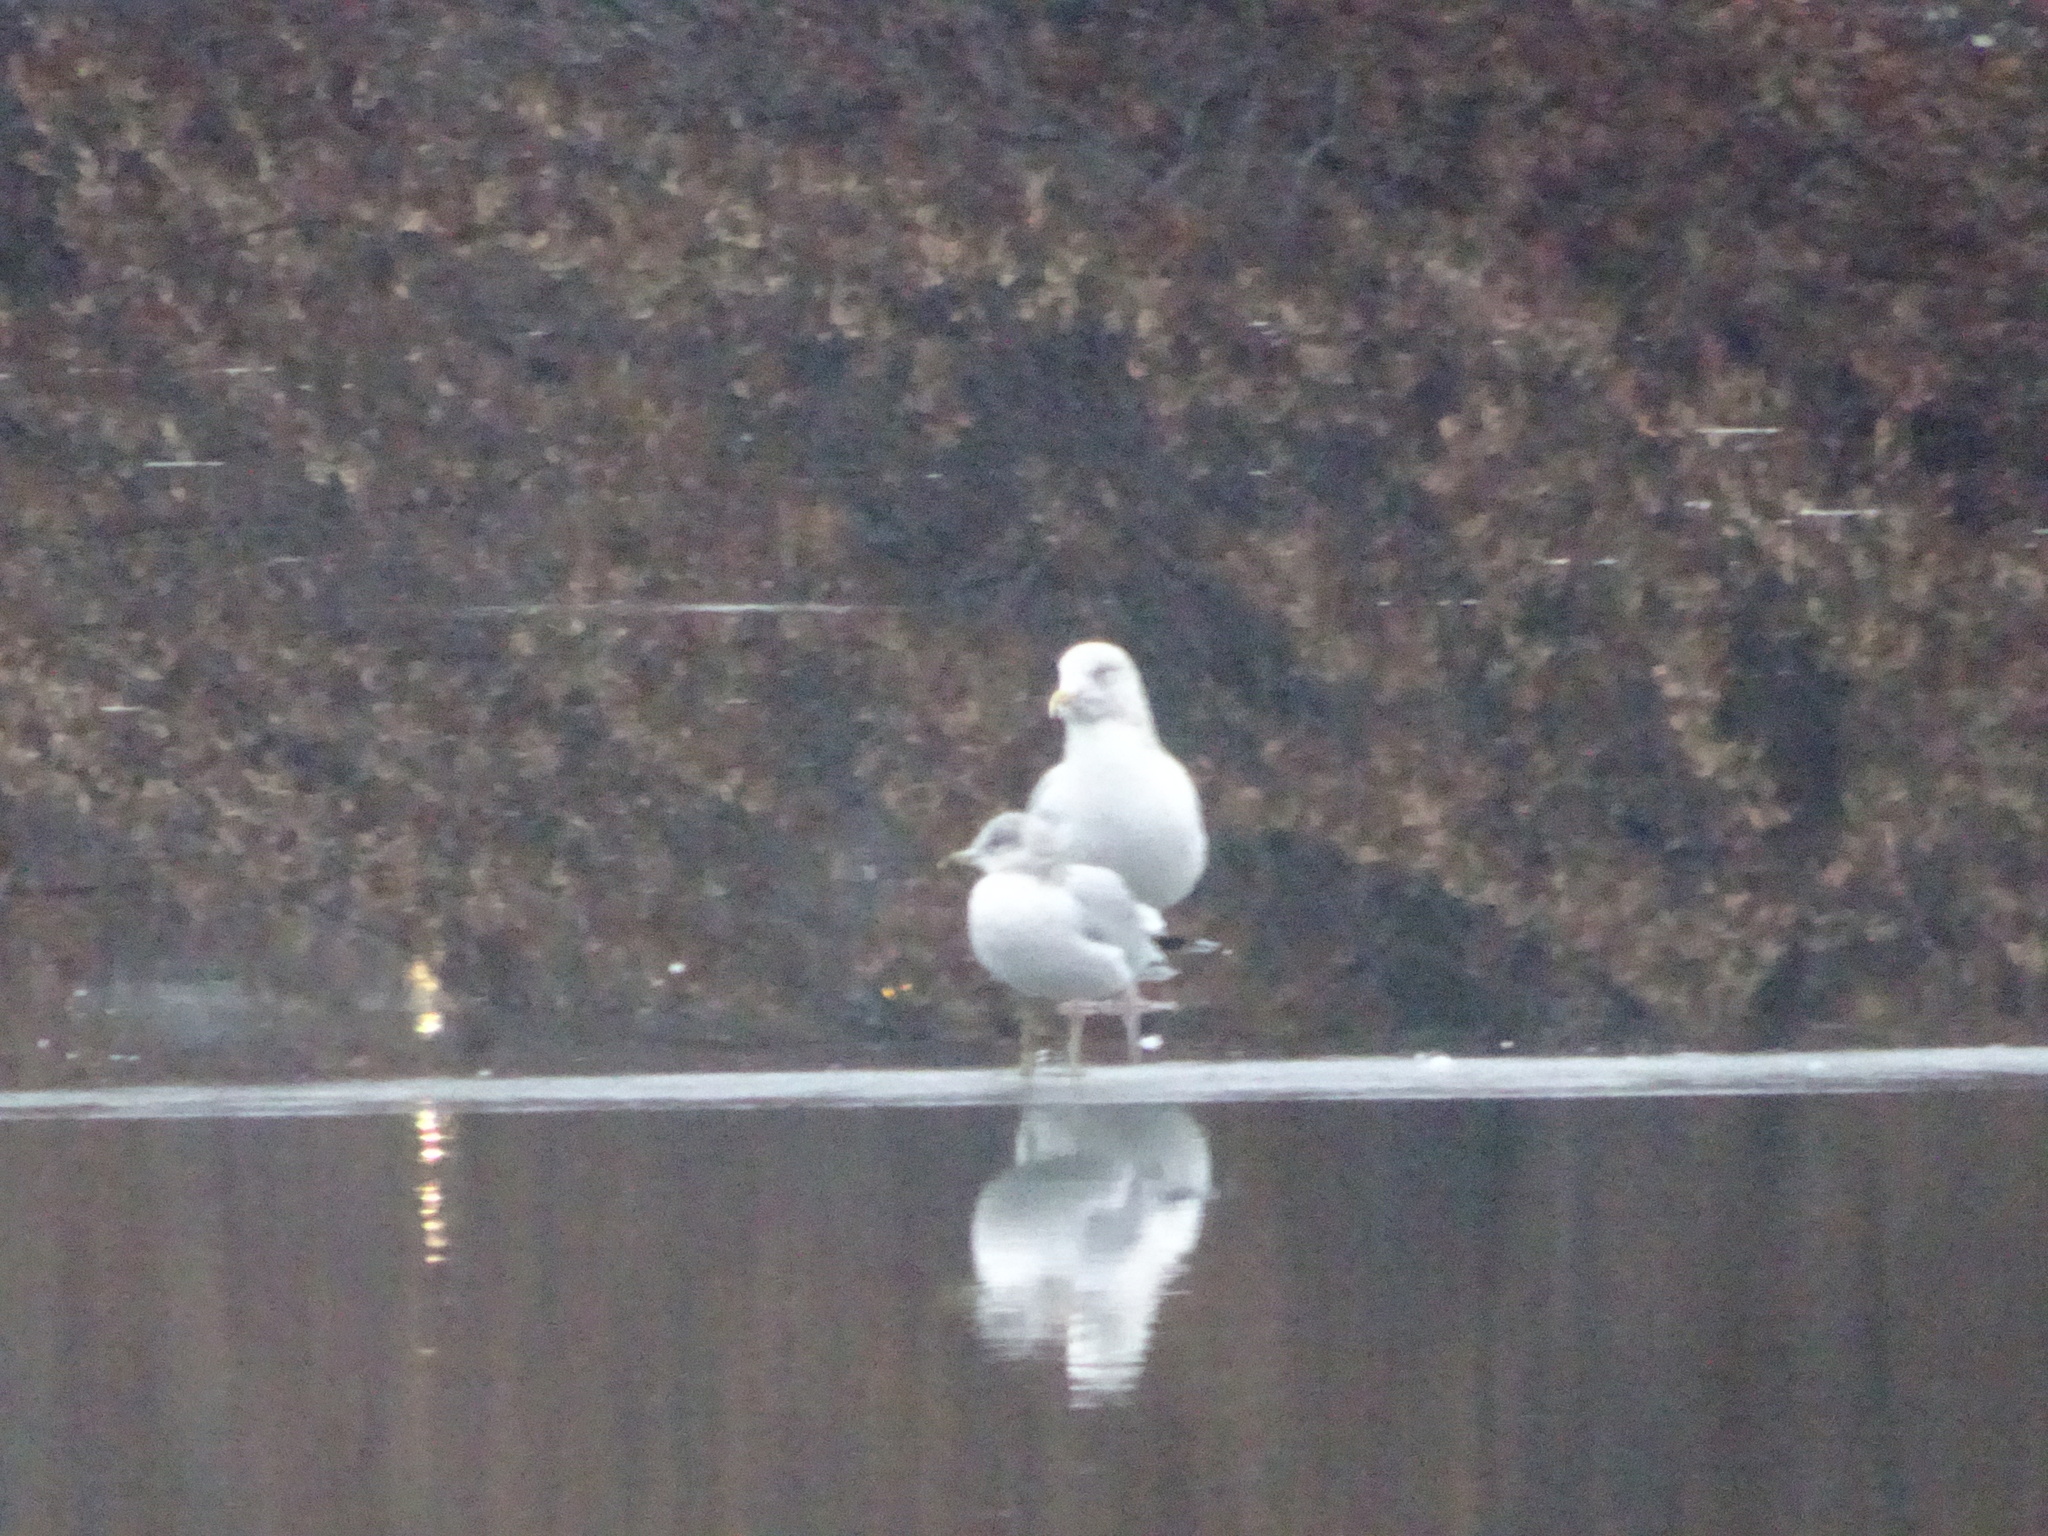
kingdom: Animalia
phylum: Chordata
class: Aves
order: Charadriiformes
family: Laridae
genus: Larus
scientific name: Larus argentatus
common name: Herring gull
